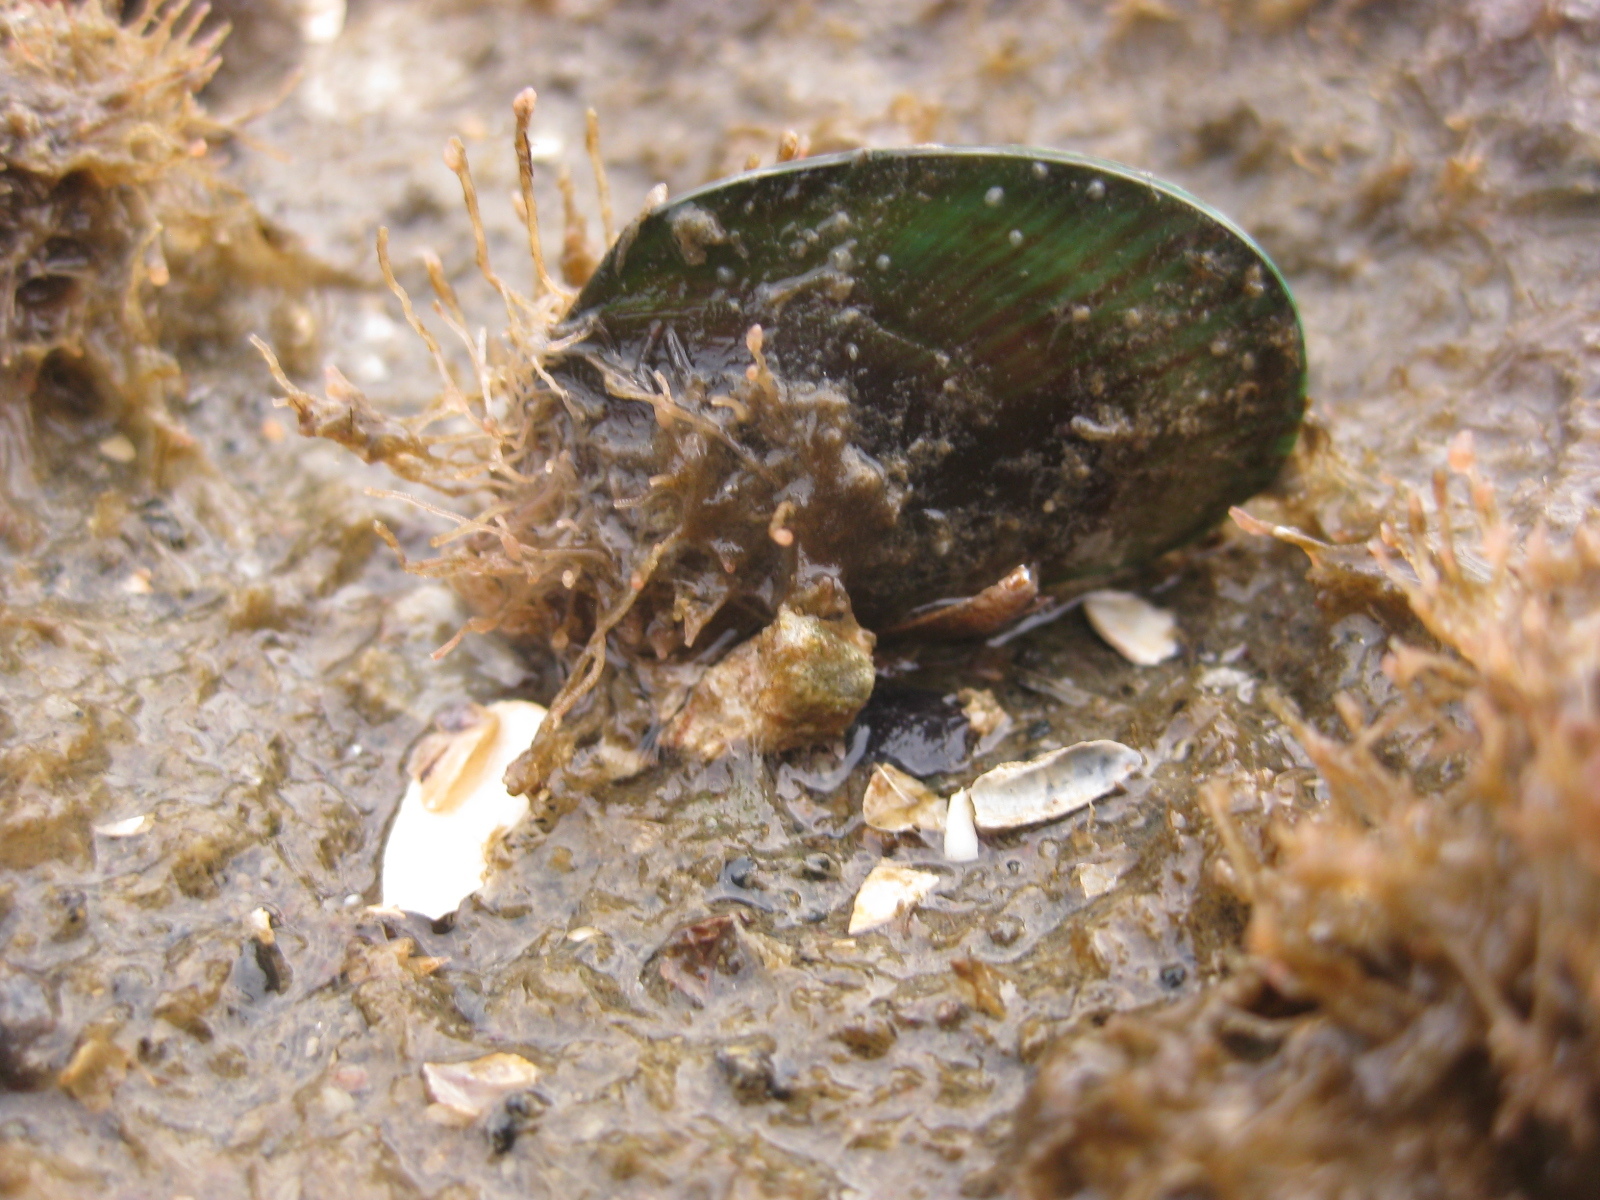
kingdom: Animalia
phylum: Mollusca
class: Bivalvia
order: Mytilida
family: Mytilidae
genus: Perna
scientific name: Perna canaliculus
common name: New zealand greenshelltm
